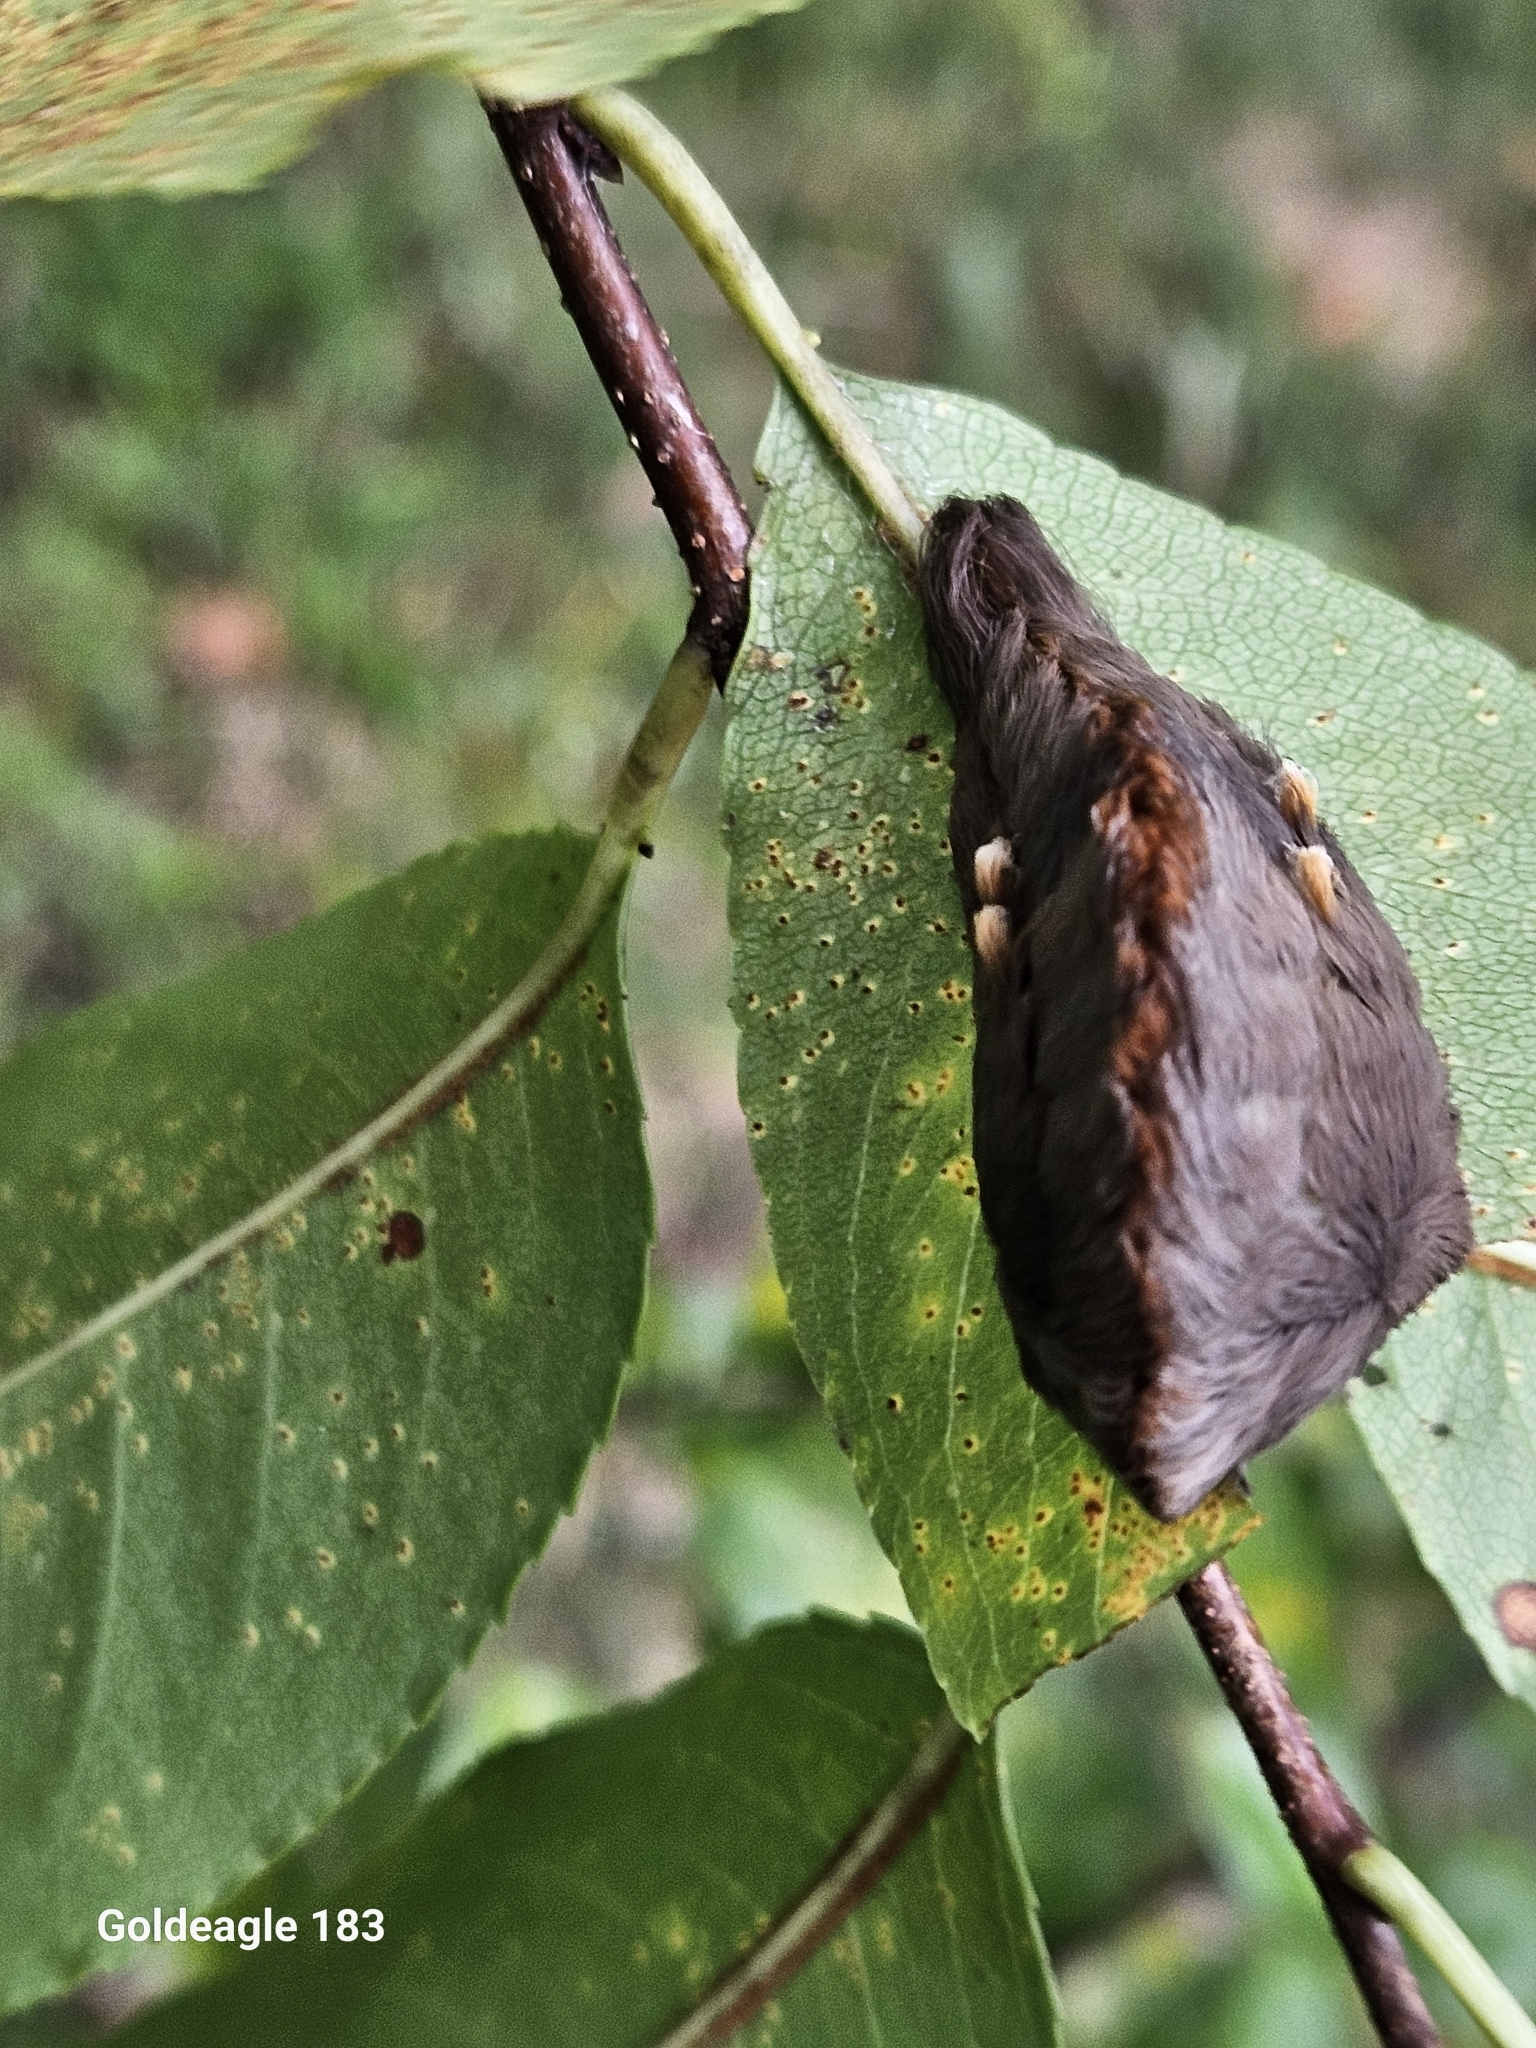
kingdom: Animalia
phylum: Arthropoda
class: Insecta
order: Lepidoptera
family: Megalopygidae
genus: Megalopyge
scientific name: Megalopyge opercularis
